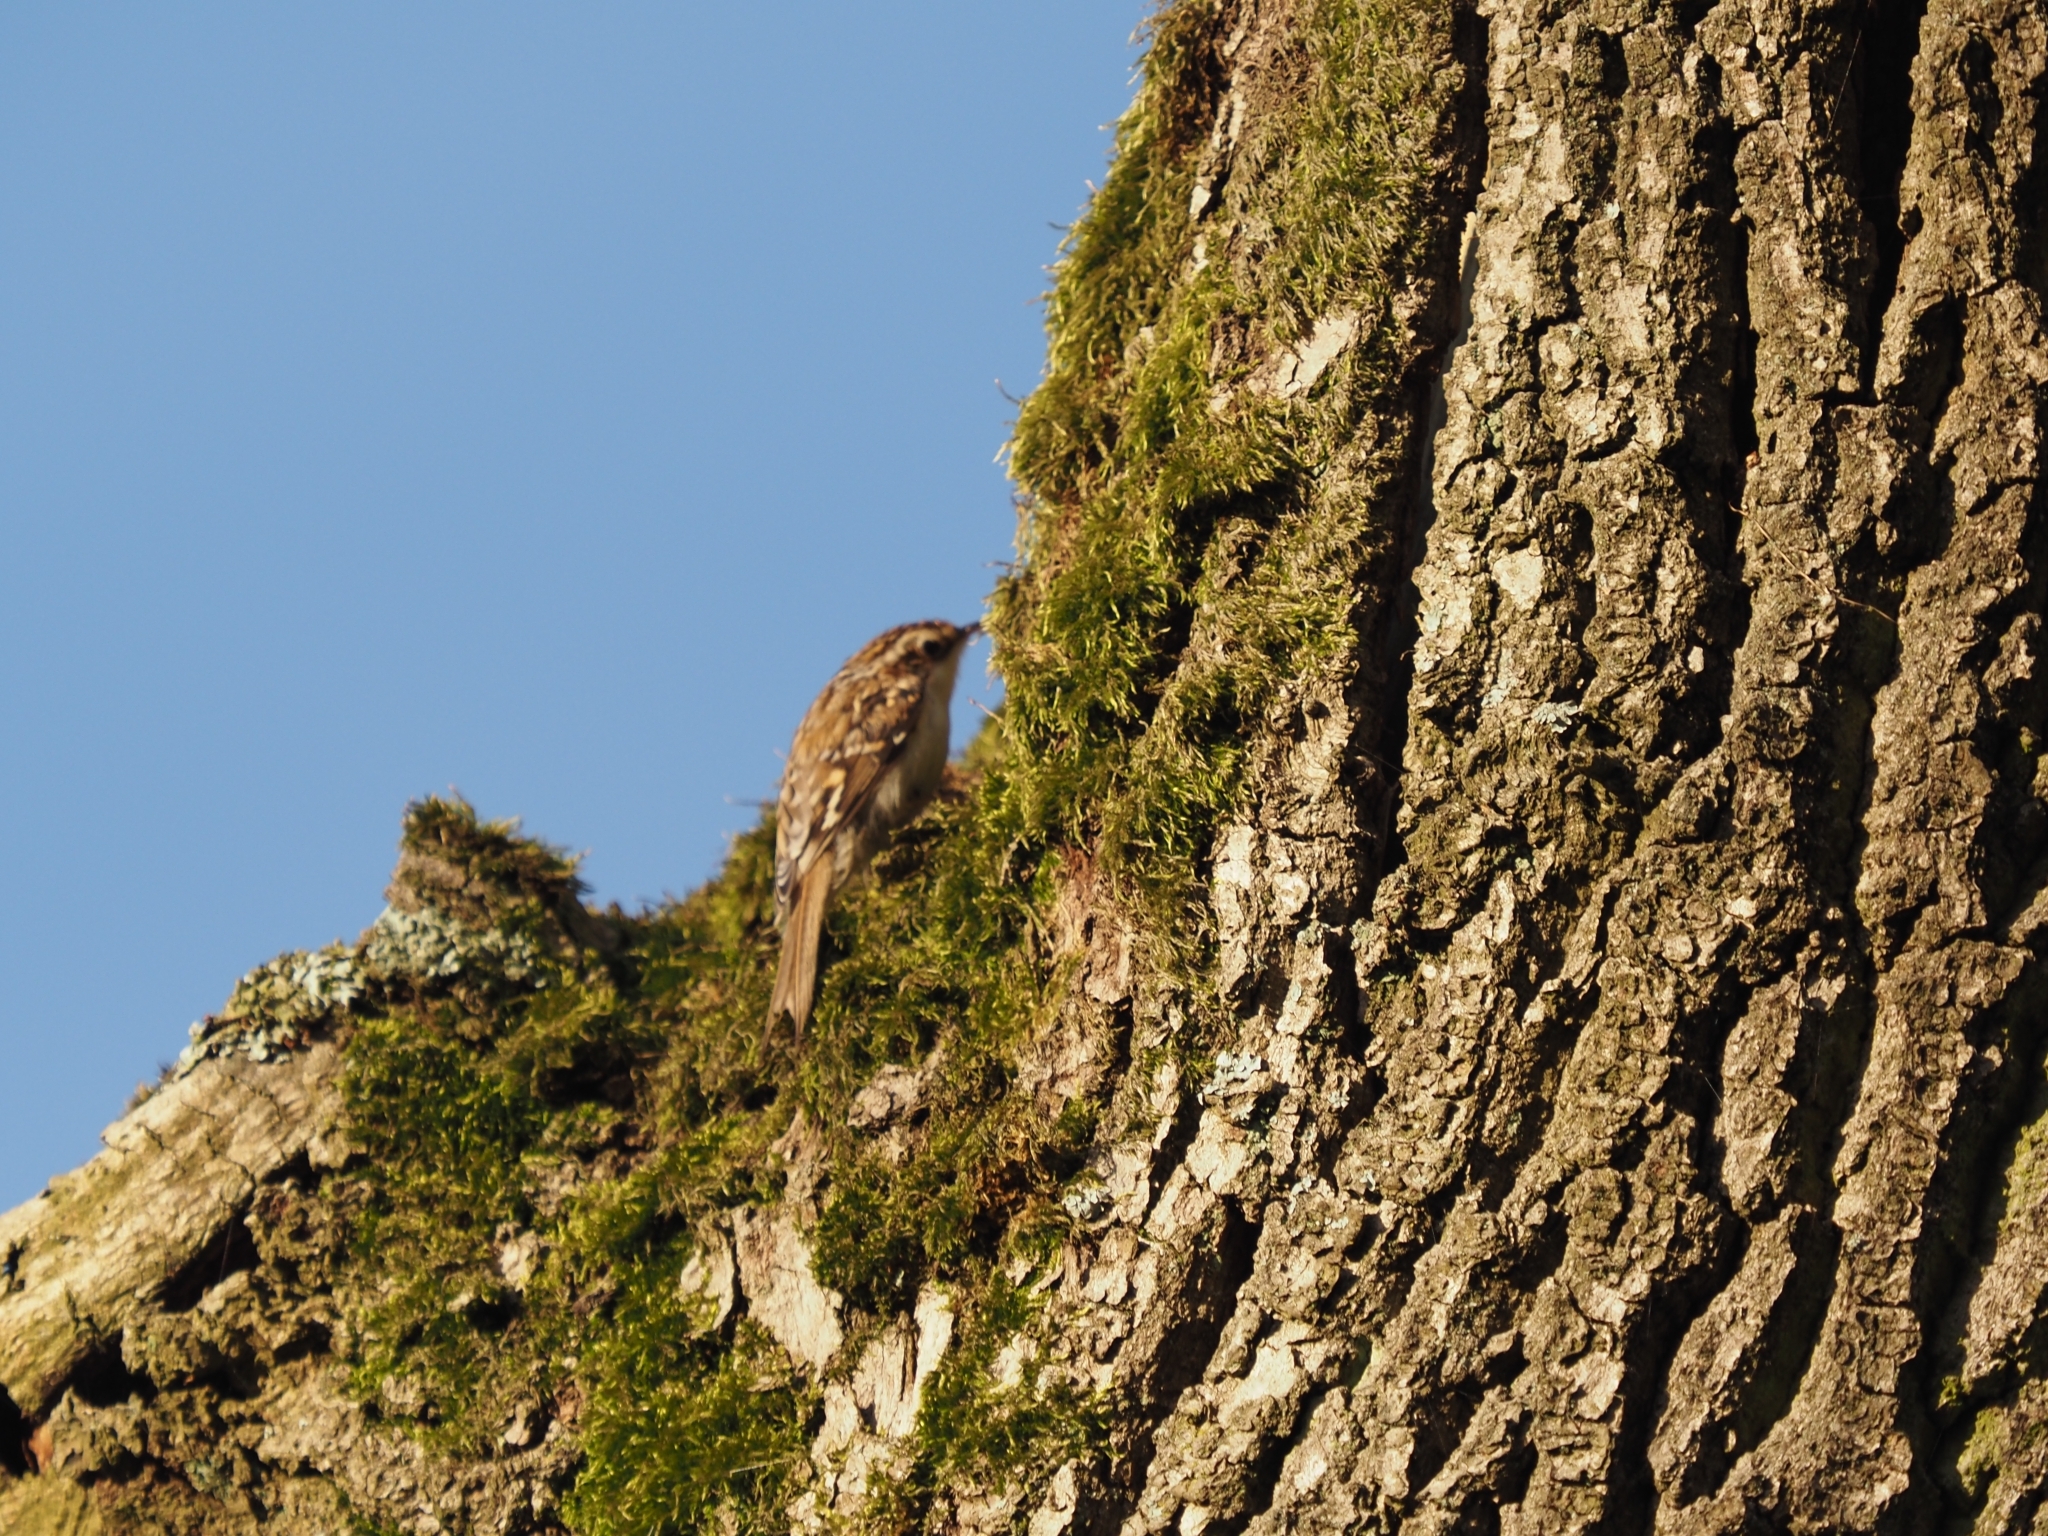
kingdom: Animalia
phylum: Chordata
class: Aves
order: Passeriformes
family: Certhiidae
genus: Certhia
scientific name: Certhia brachydactyla
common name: Short-toed treecreeper
